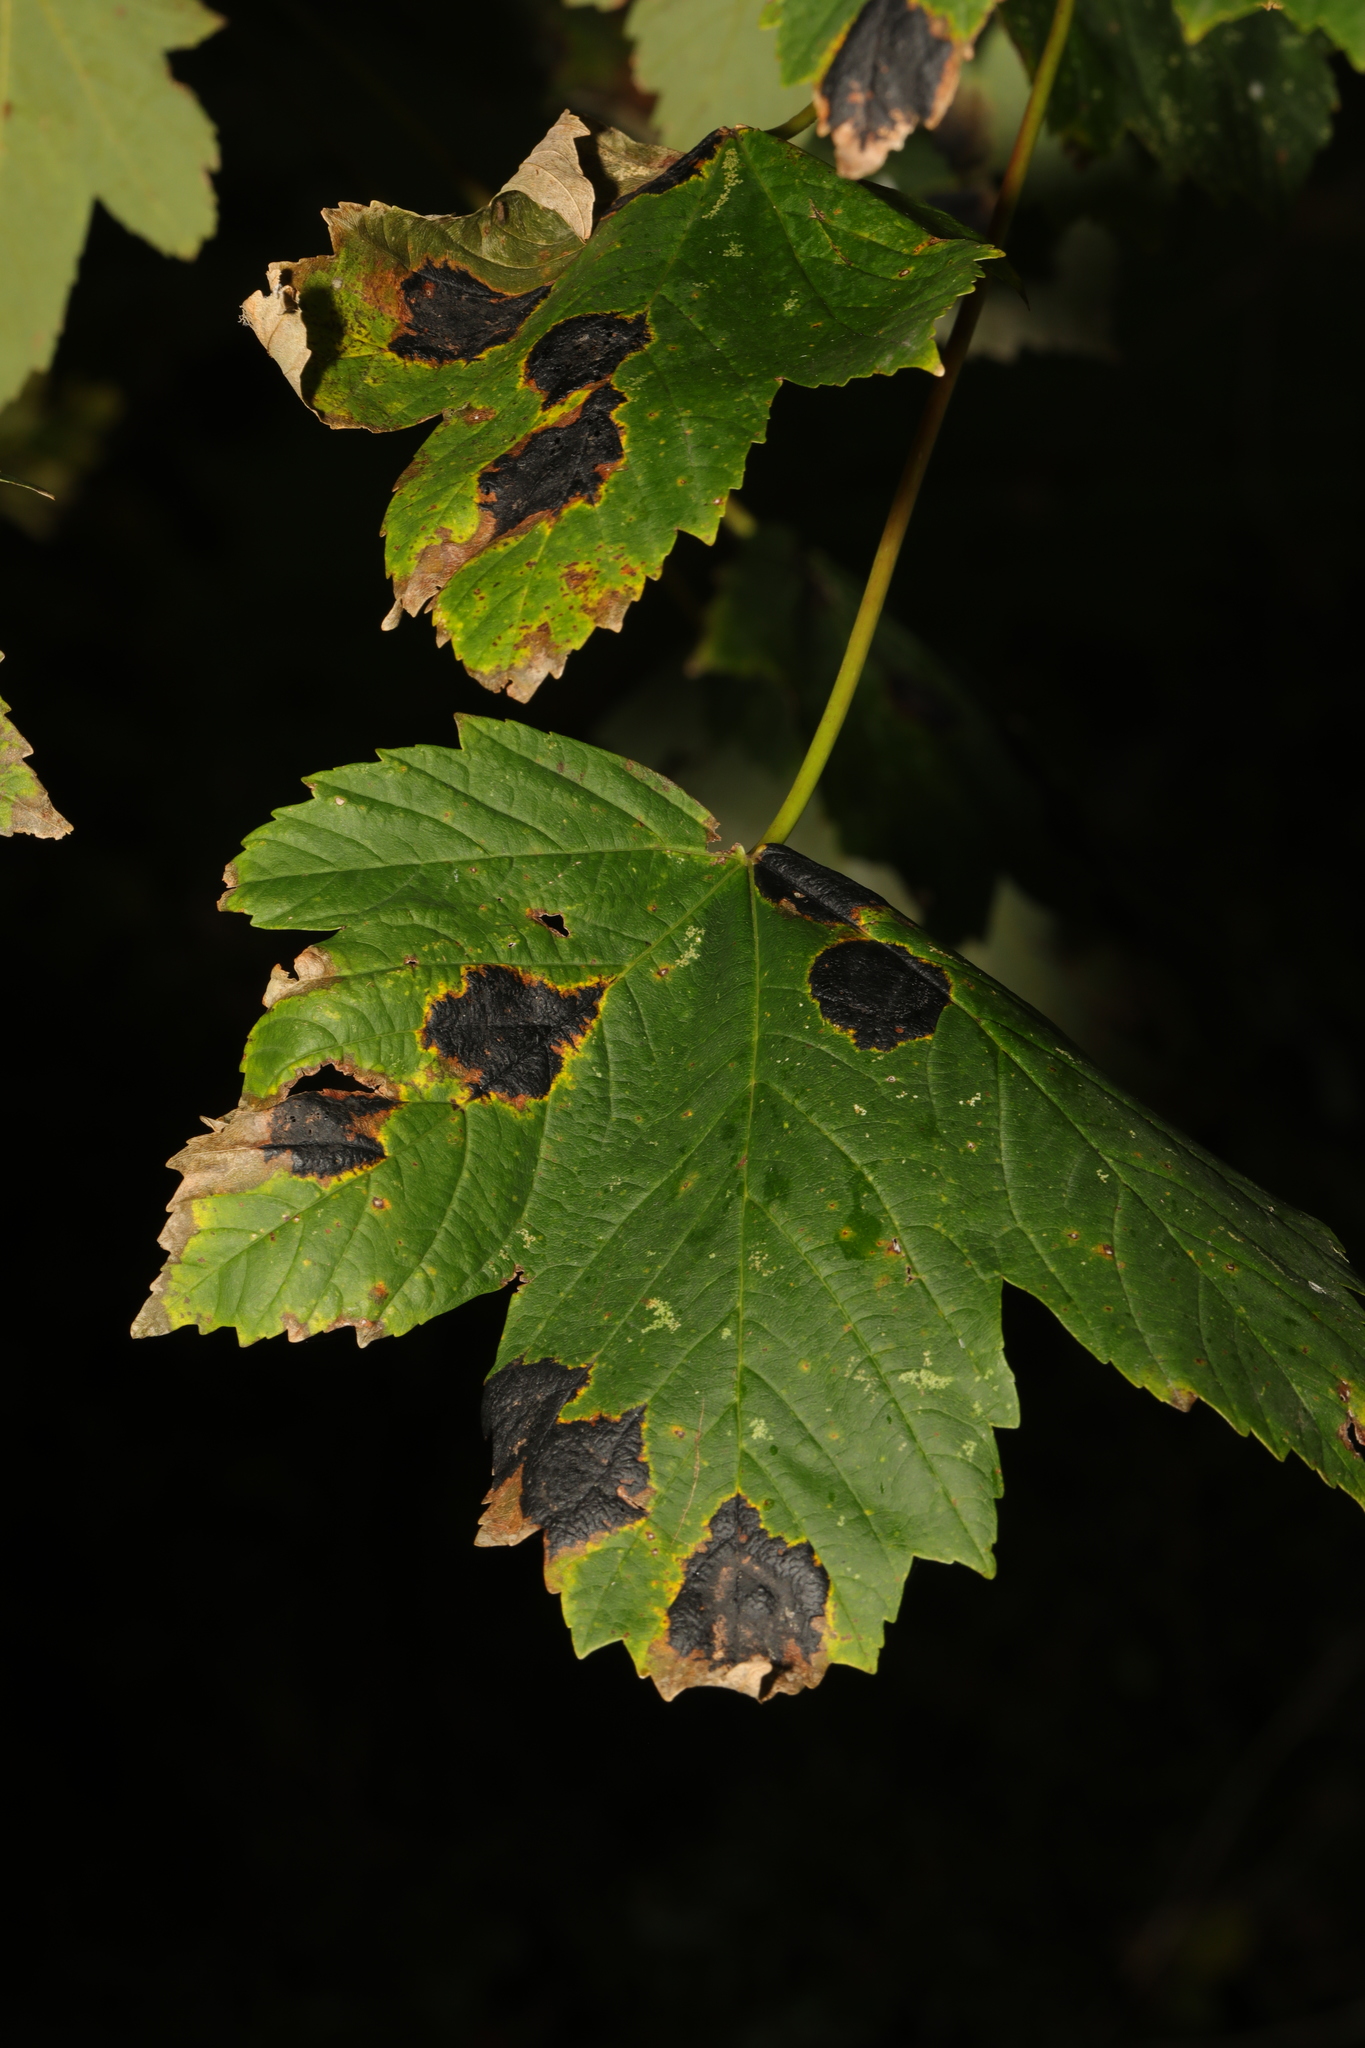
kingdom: Plantae
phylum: Tracheophyta
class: Magnoliopsida
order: Sapindales
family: Sapindaceae
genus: Acer
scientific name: Acer pseudoplatanus
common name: Sycamore
